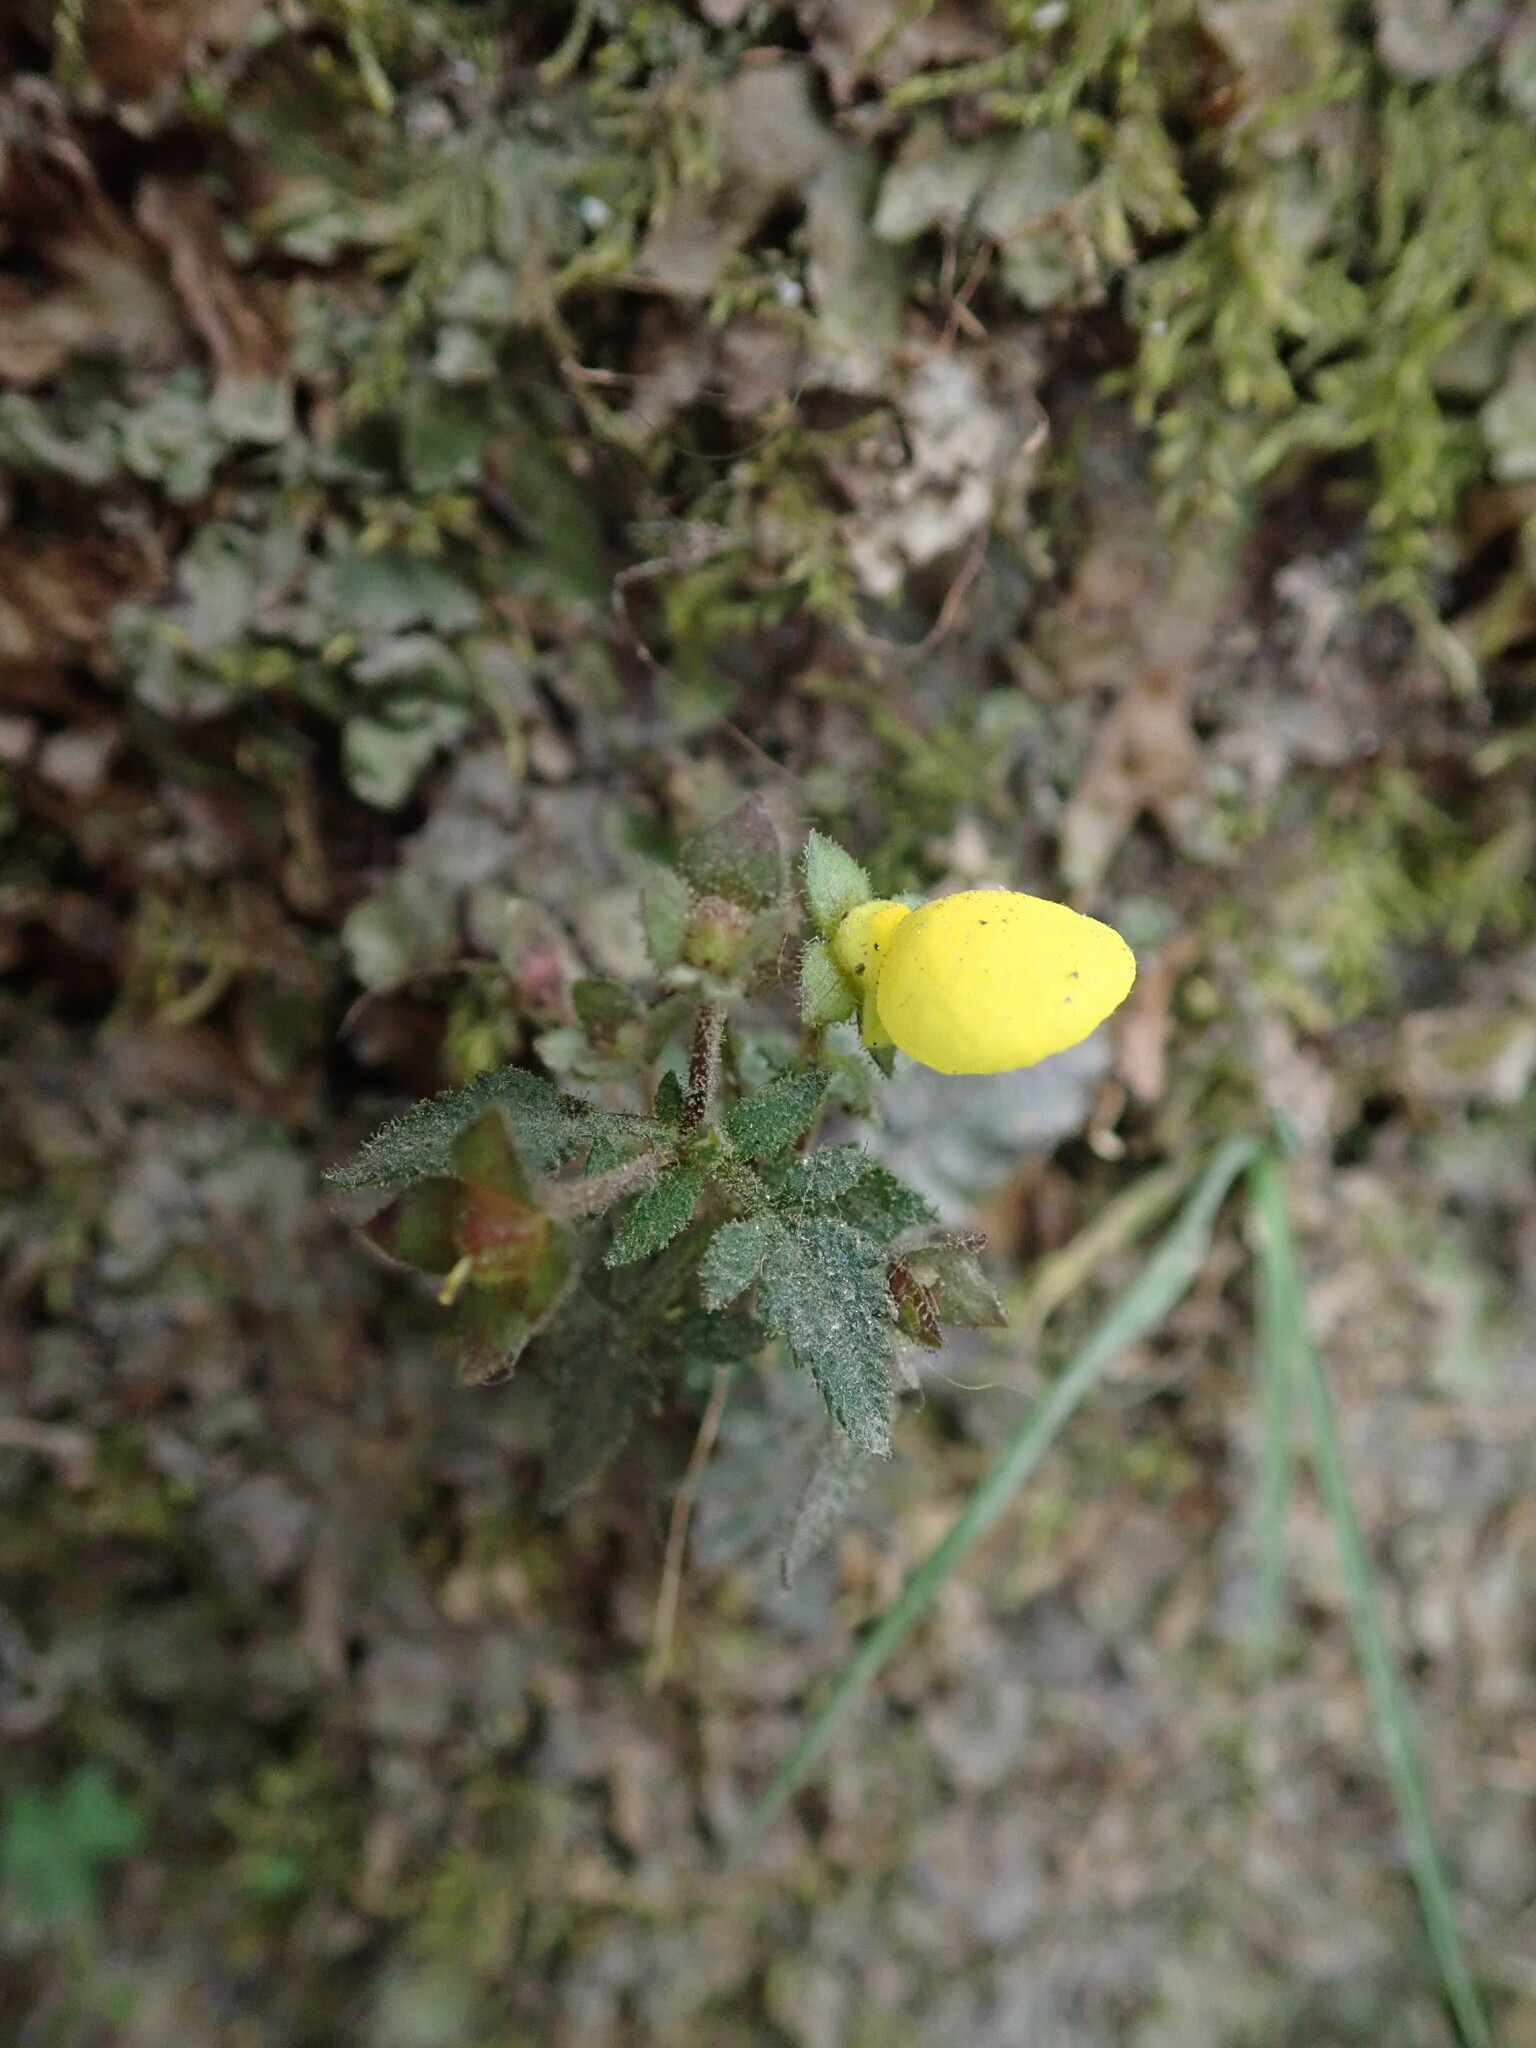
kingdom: Plantae
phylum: Tracheophyta
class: Magnoliopsida
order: Lamiales
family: Calceolariaceae
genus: Calceolaria
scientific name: Calceolaria tripartita
